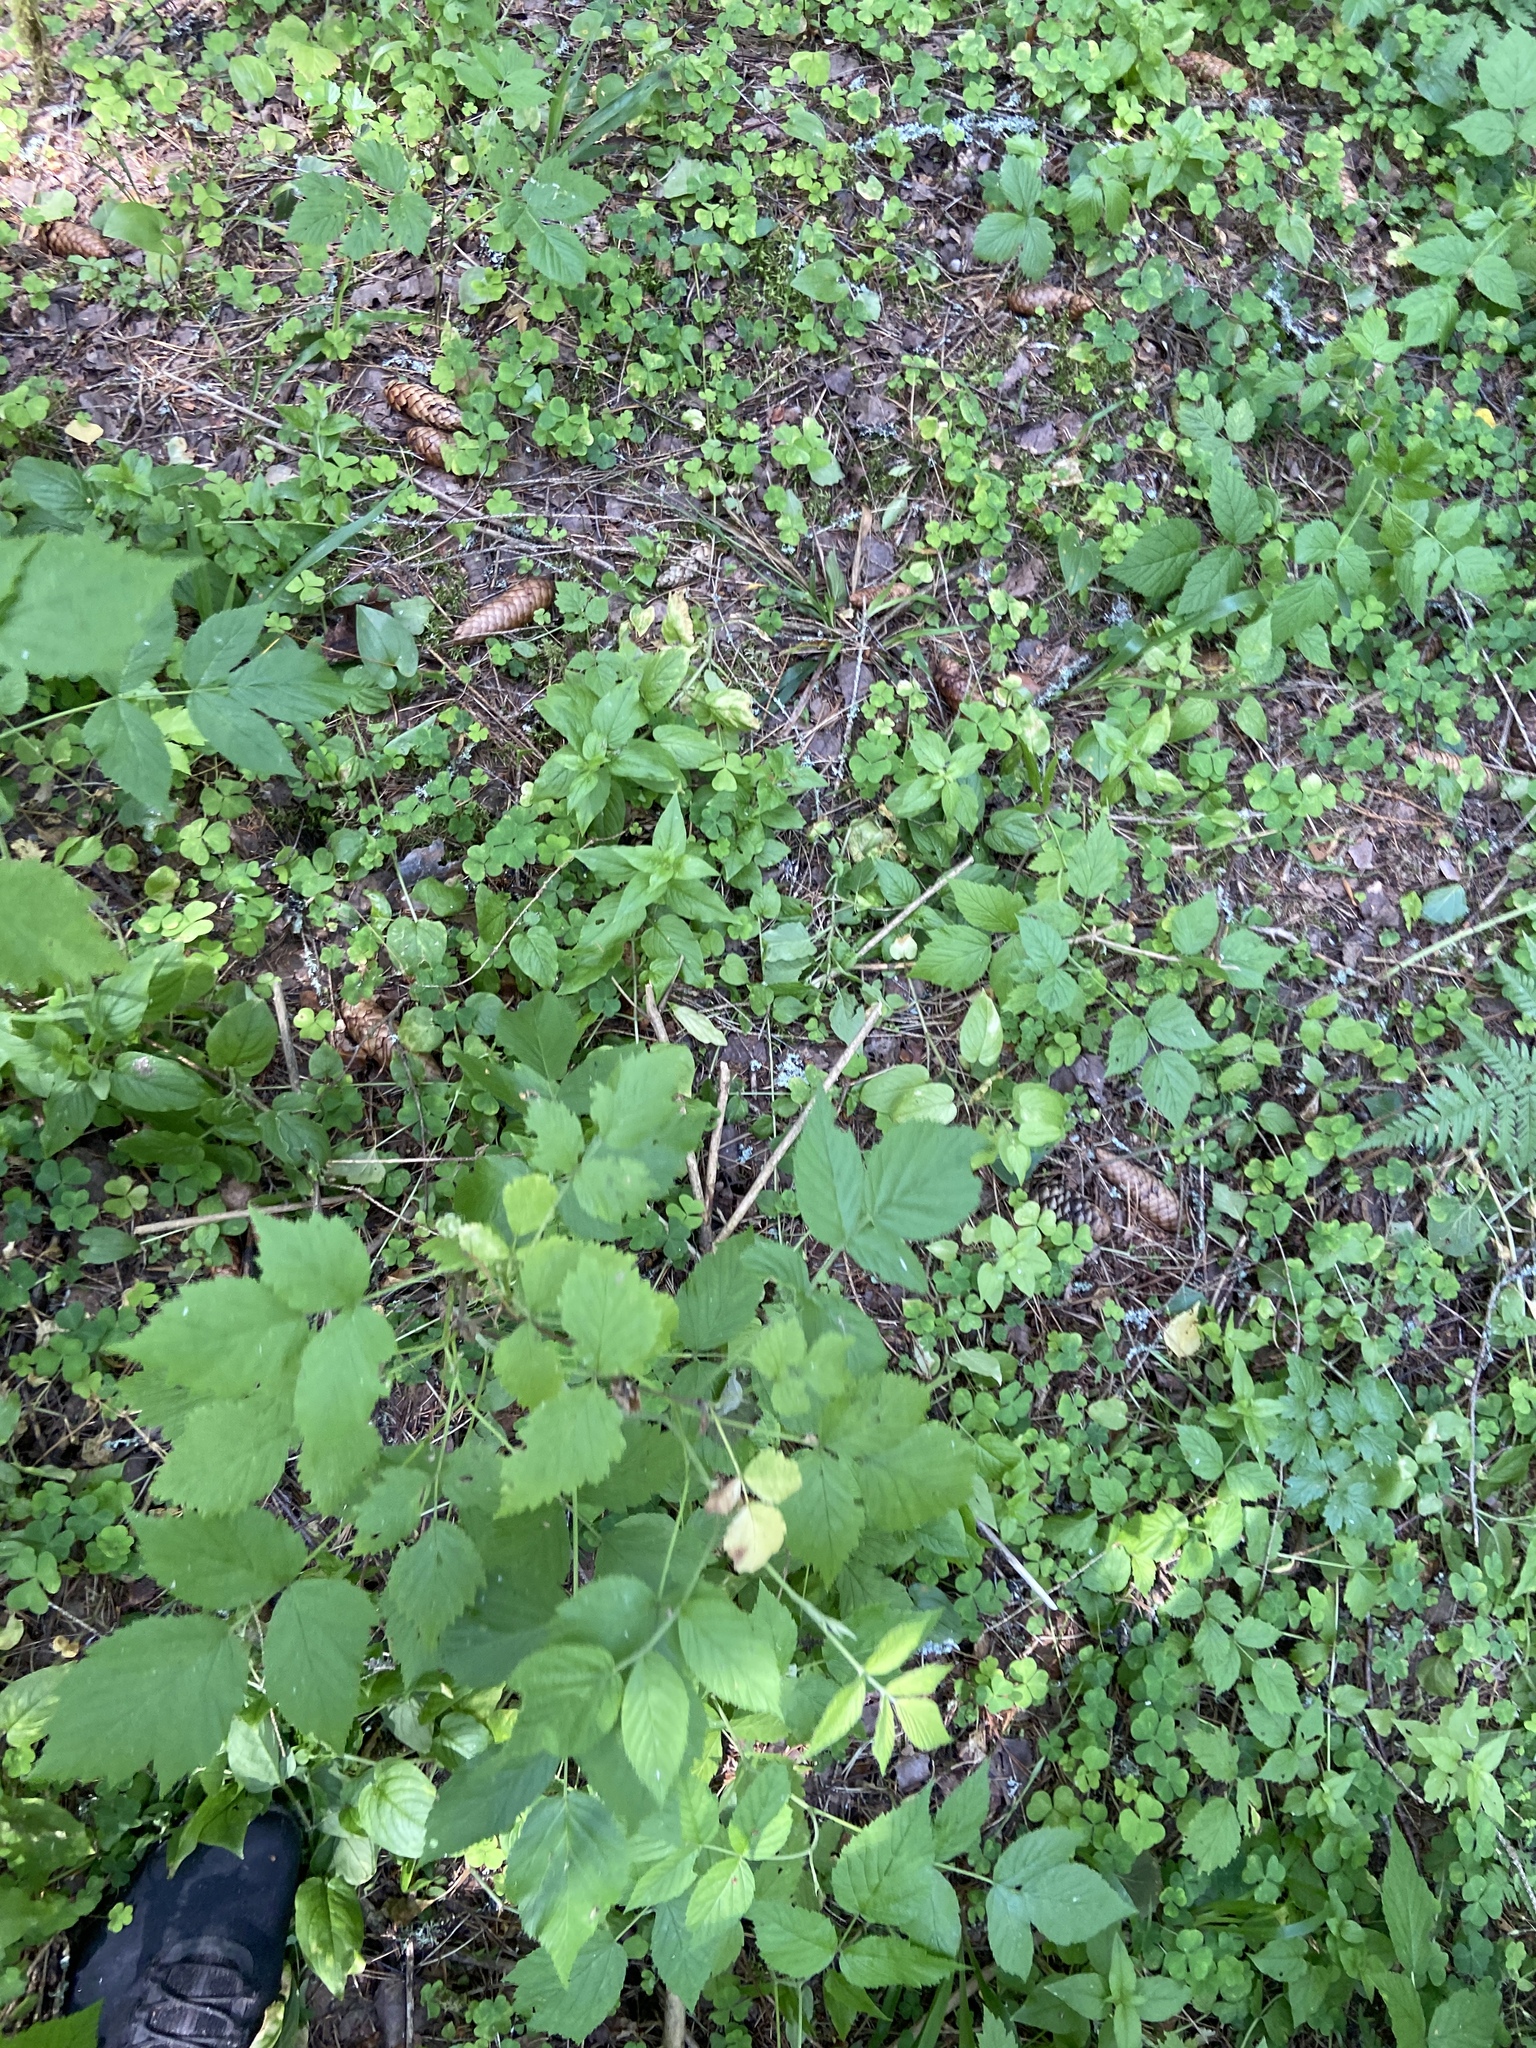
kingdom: Plantae
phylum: Tracheophyta
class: Magnoliopsida
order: Rosales
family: Rosaceae
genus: Rubus
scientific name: Rubus idaeus
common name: Raspberry
